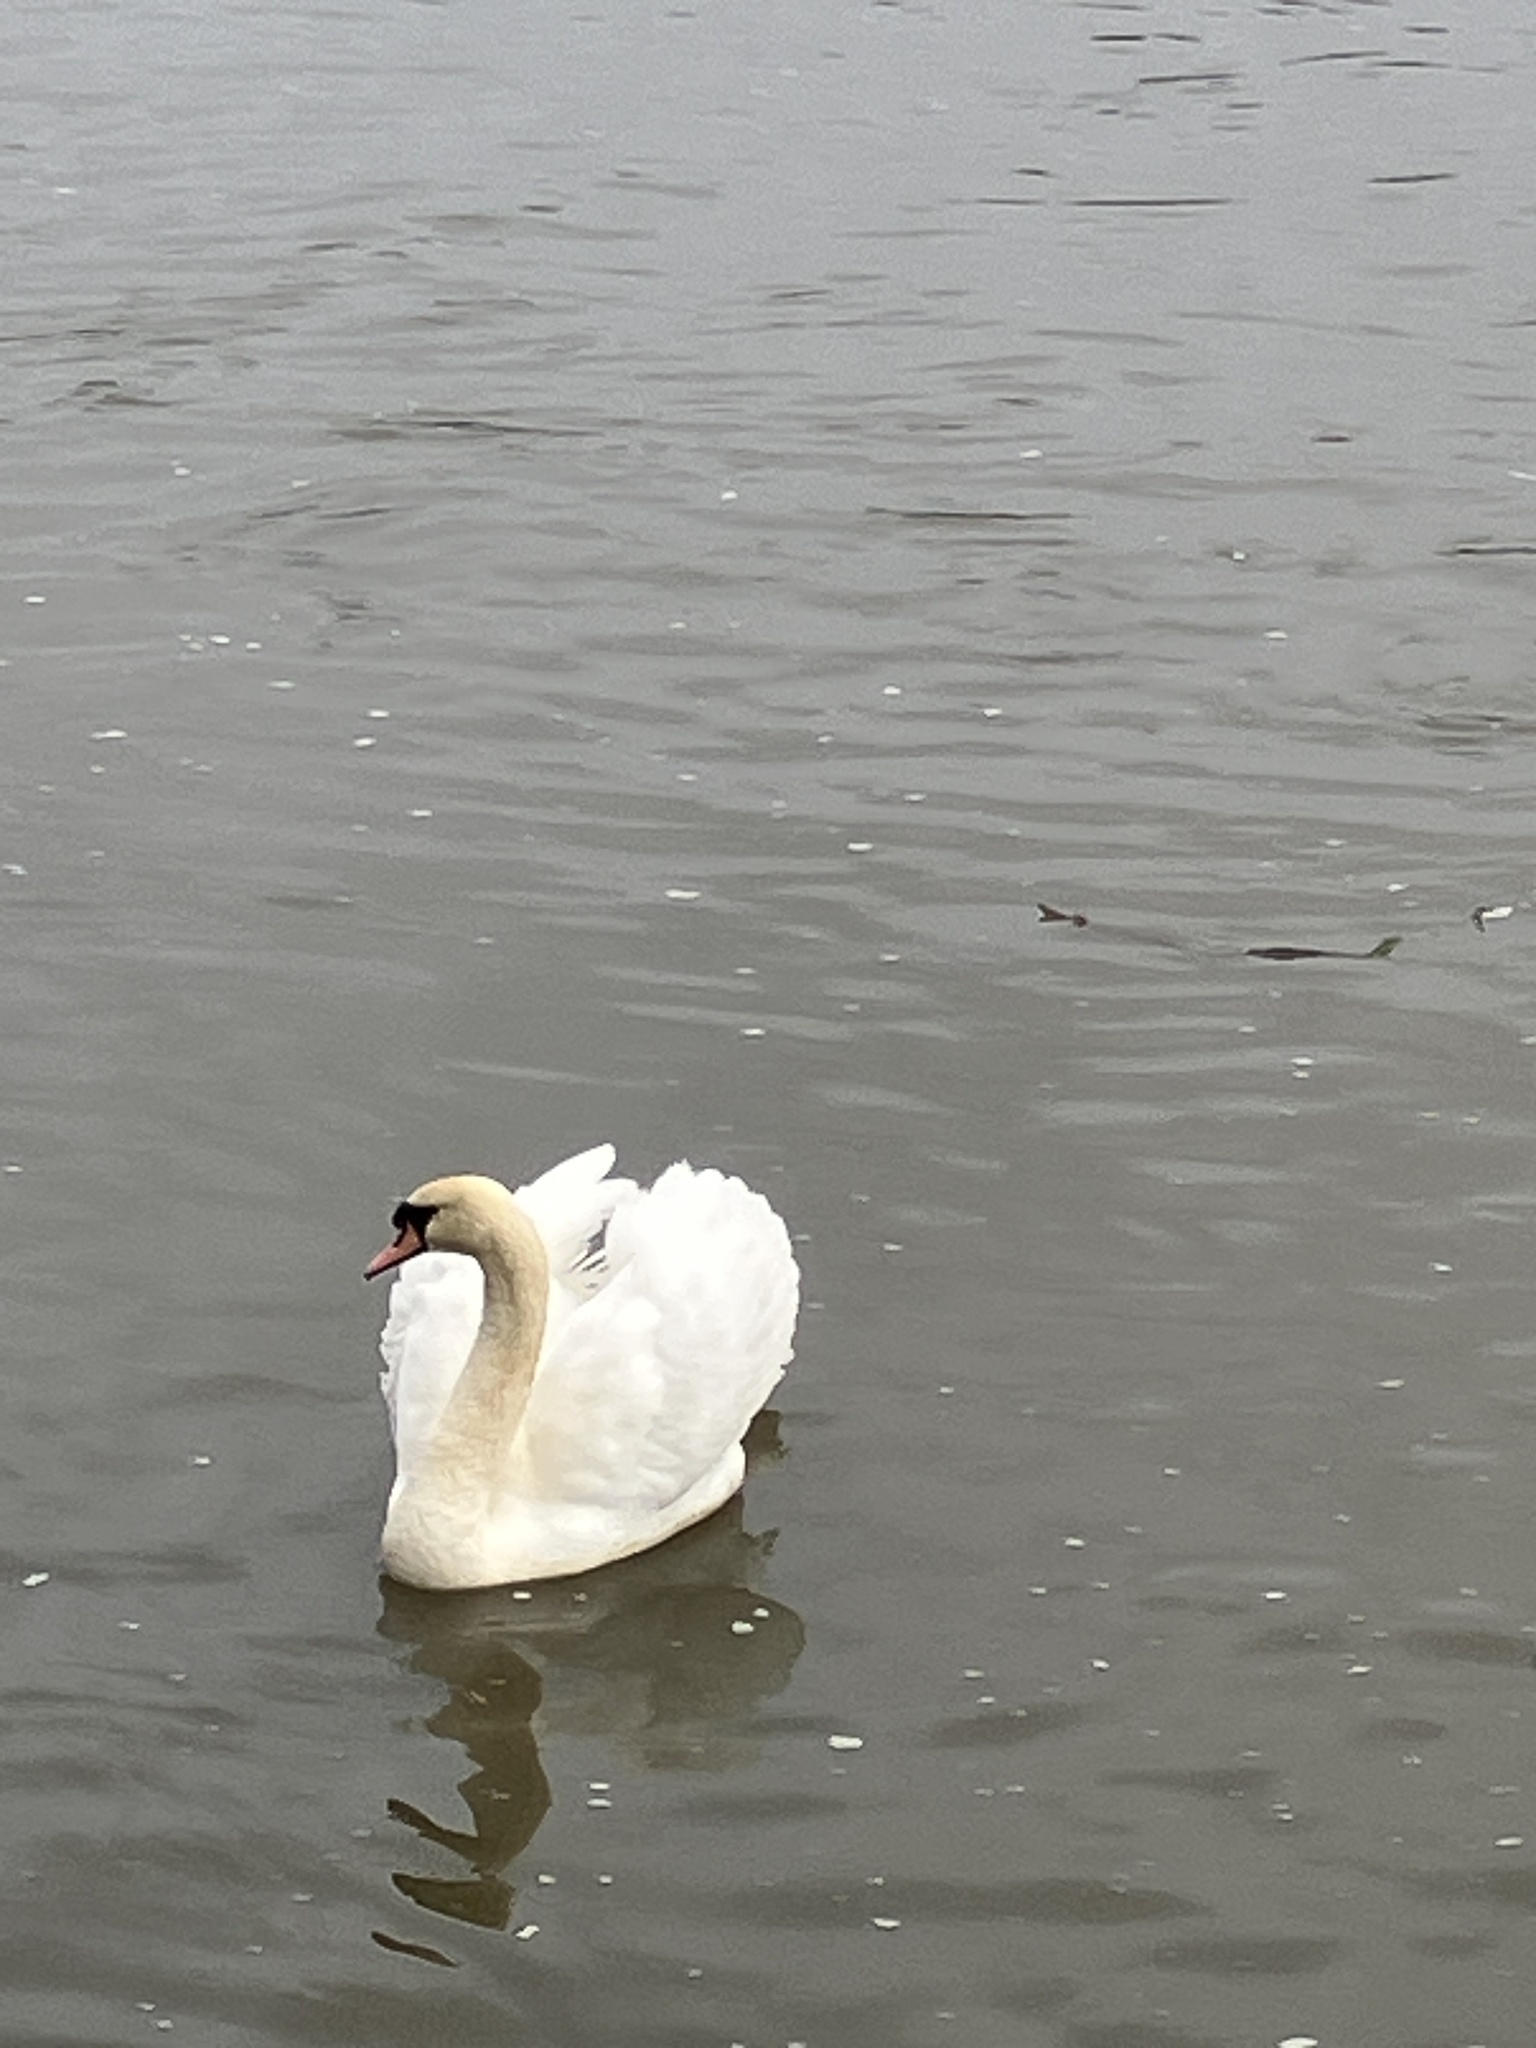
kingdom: Animalia
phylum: Chordata
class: Aves
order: Anseriformes
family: Anatidae
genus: Cygnus
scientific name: Cygnus olor
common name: Mute swan
